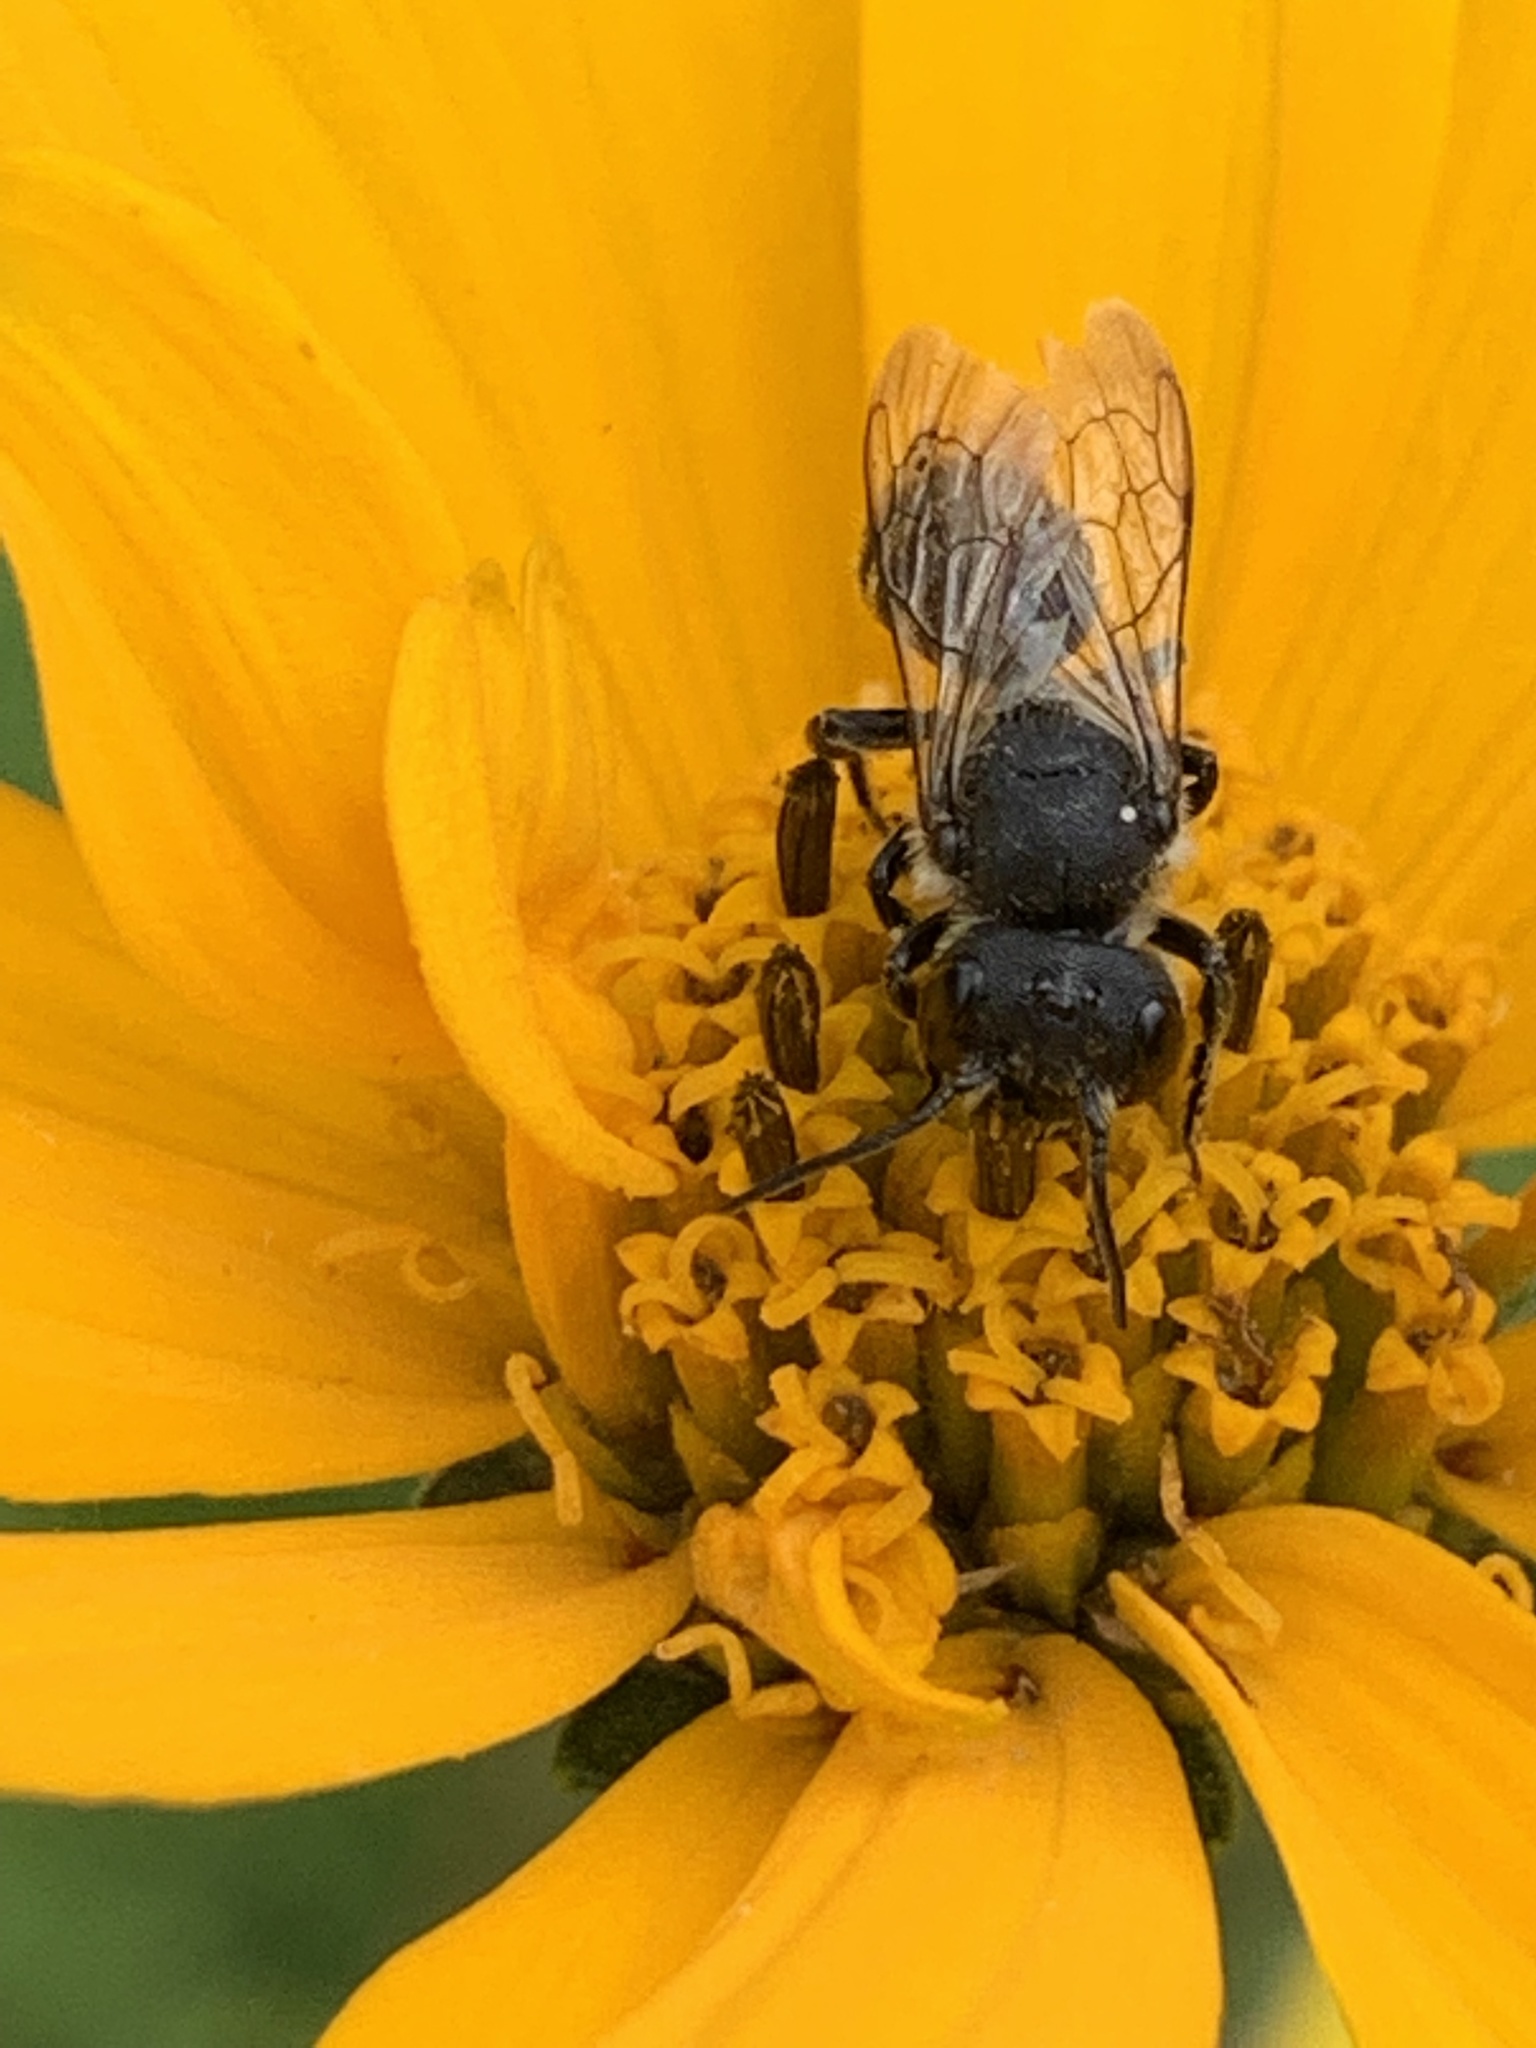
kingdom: Animalia
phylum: Arthropoda
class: Insecta
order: Hymenoptera
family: Megachilidae
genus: Megachile
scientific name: Megachile campanulae
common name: Bellflower resin bee
